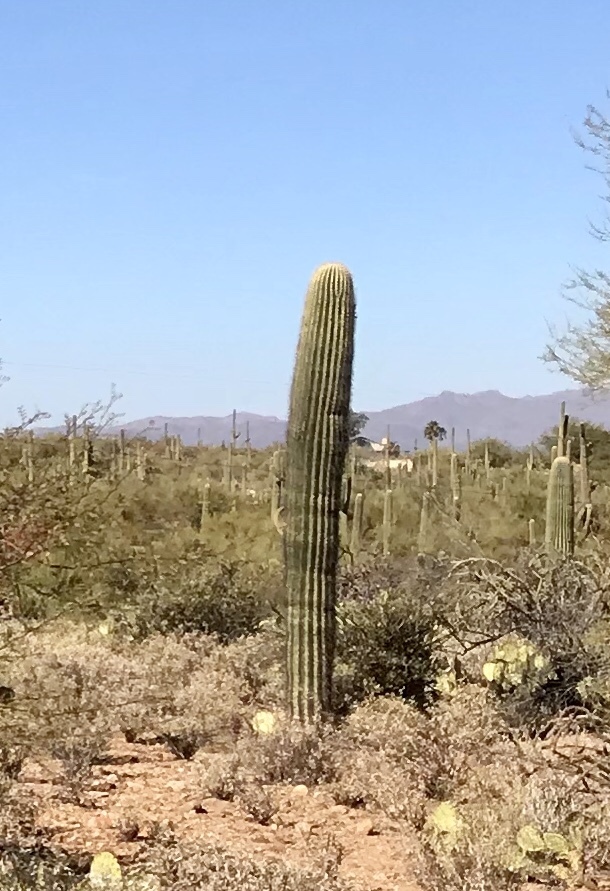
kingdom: Plantae
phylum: Tracheophyta
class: Magnoliopsida
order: Caryophyllales
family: Cactaceae
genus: Carnegiea
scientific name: Carnegiea gigantea
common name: Saguaro
